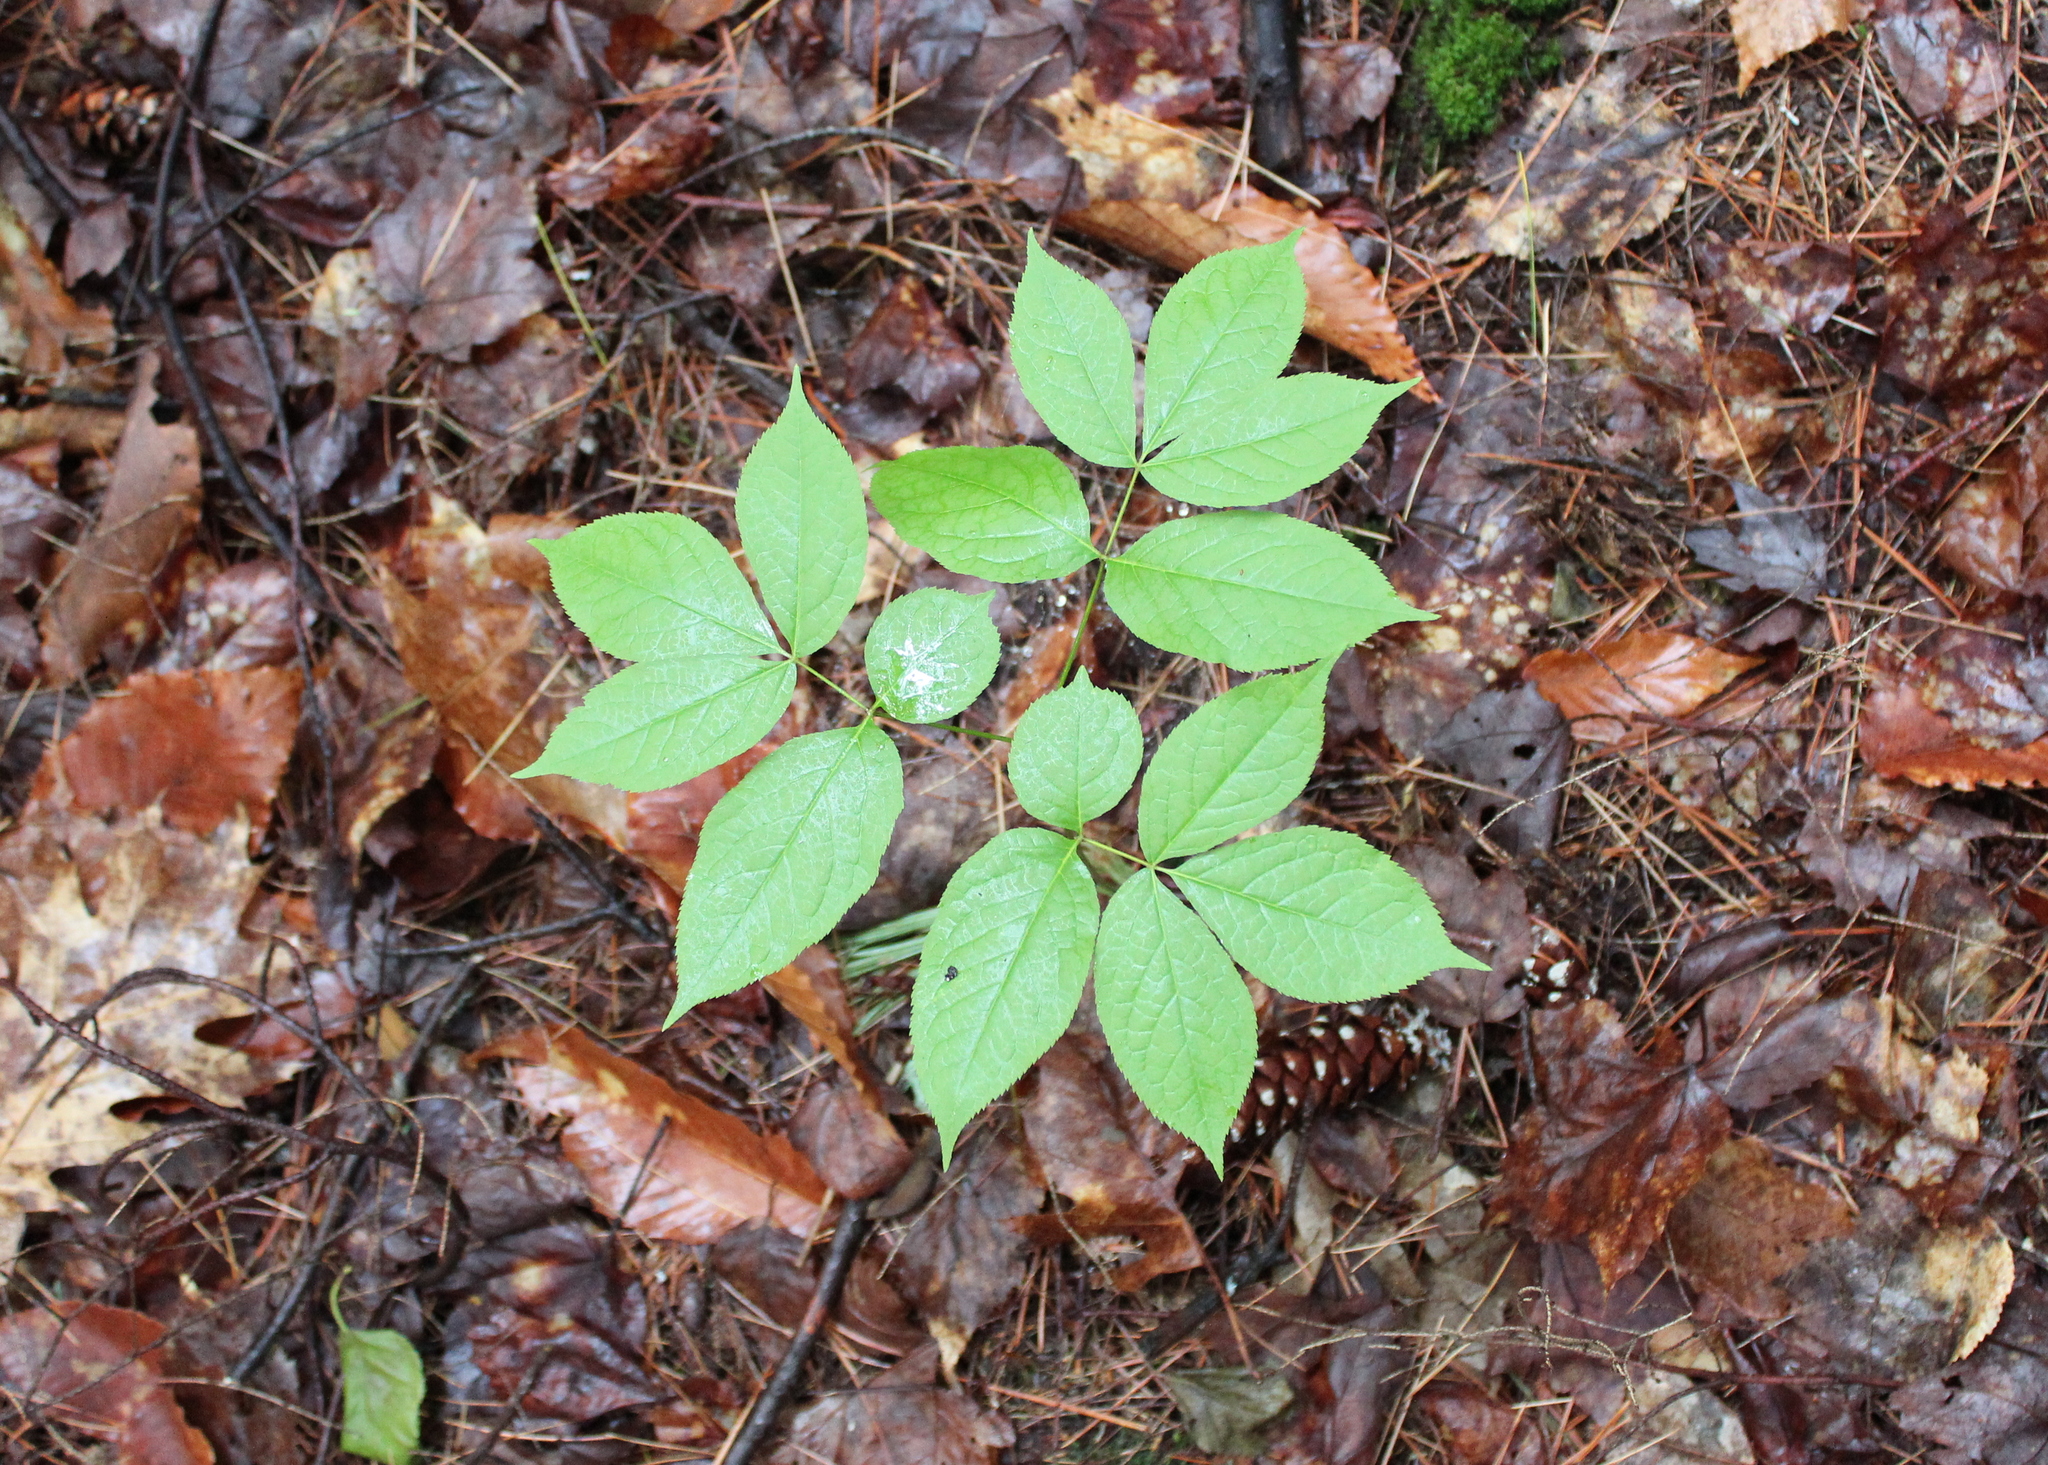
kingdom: Plantae
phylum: Tracheophyta
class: Magnoliopsida
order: Apiales
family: Araliaceae
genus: Aralia
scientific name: Aralia nudicaulis
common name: Wild sarsaparilla
